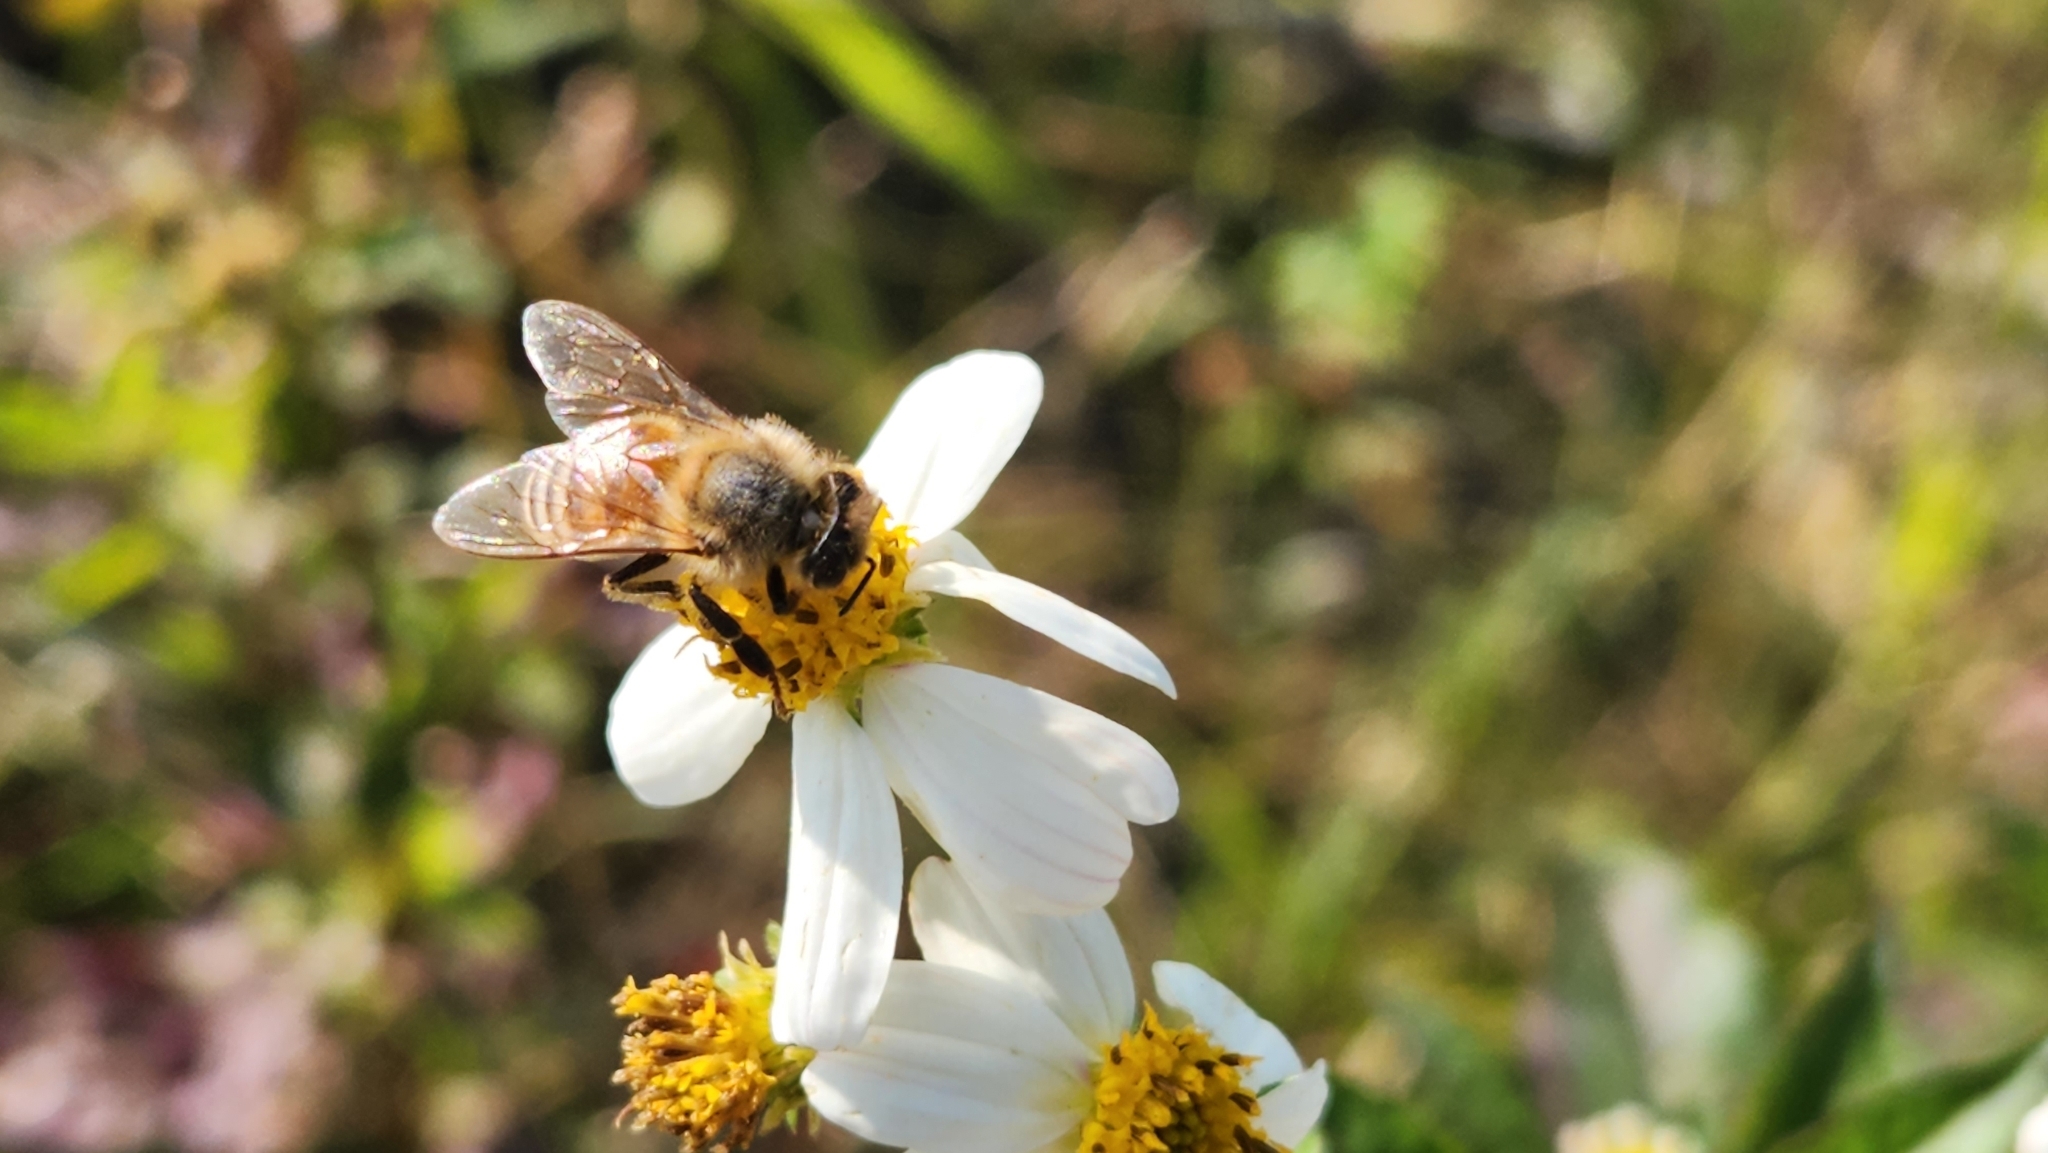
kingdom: Animalia
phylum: Arthropoda
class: Insecta
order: Hymenoptera
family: Apidae
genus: Apis
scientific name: Apis mellifera
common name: Honey bee
